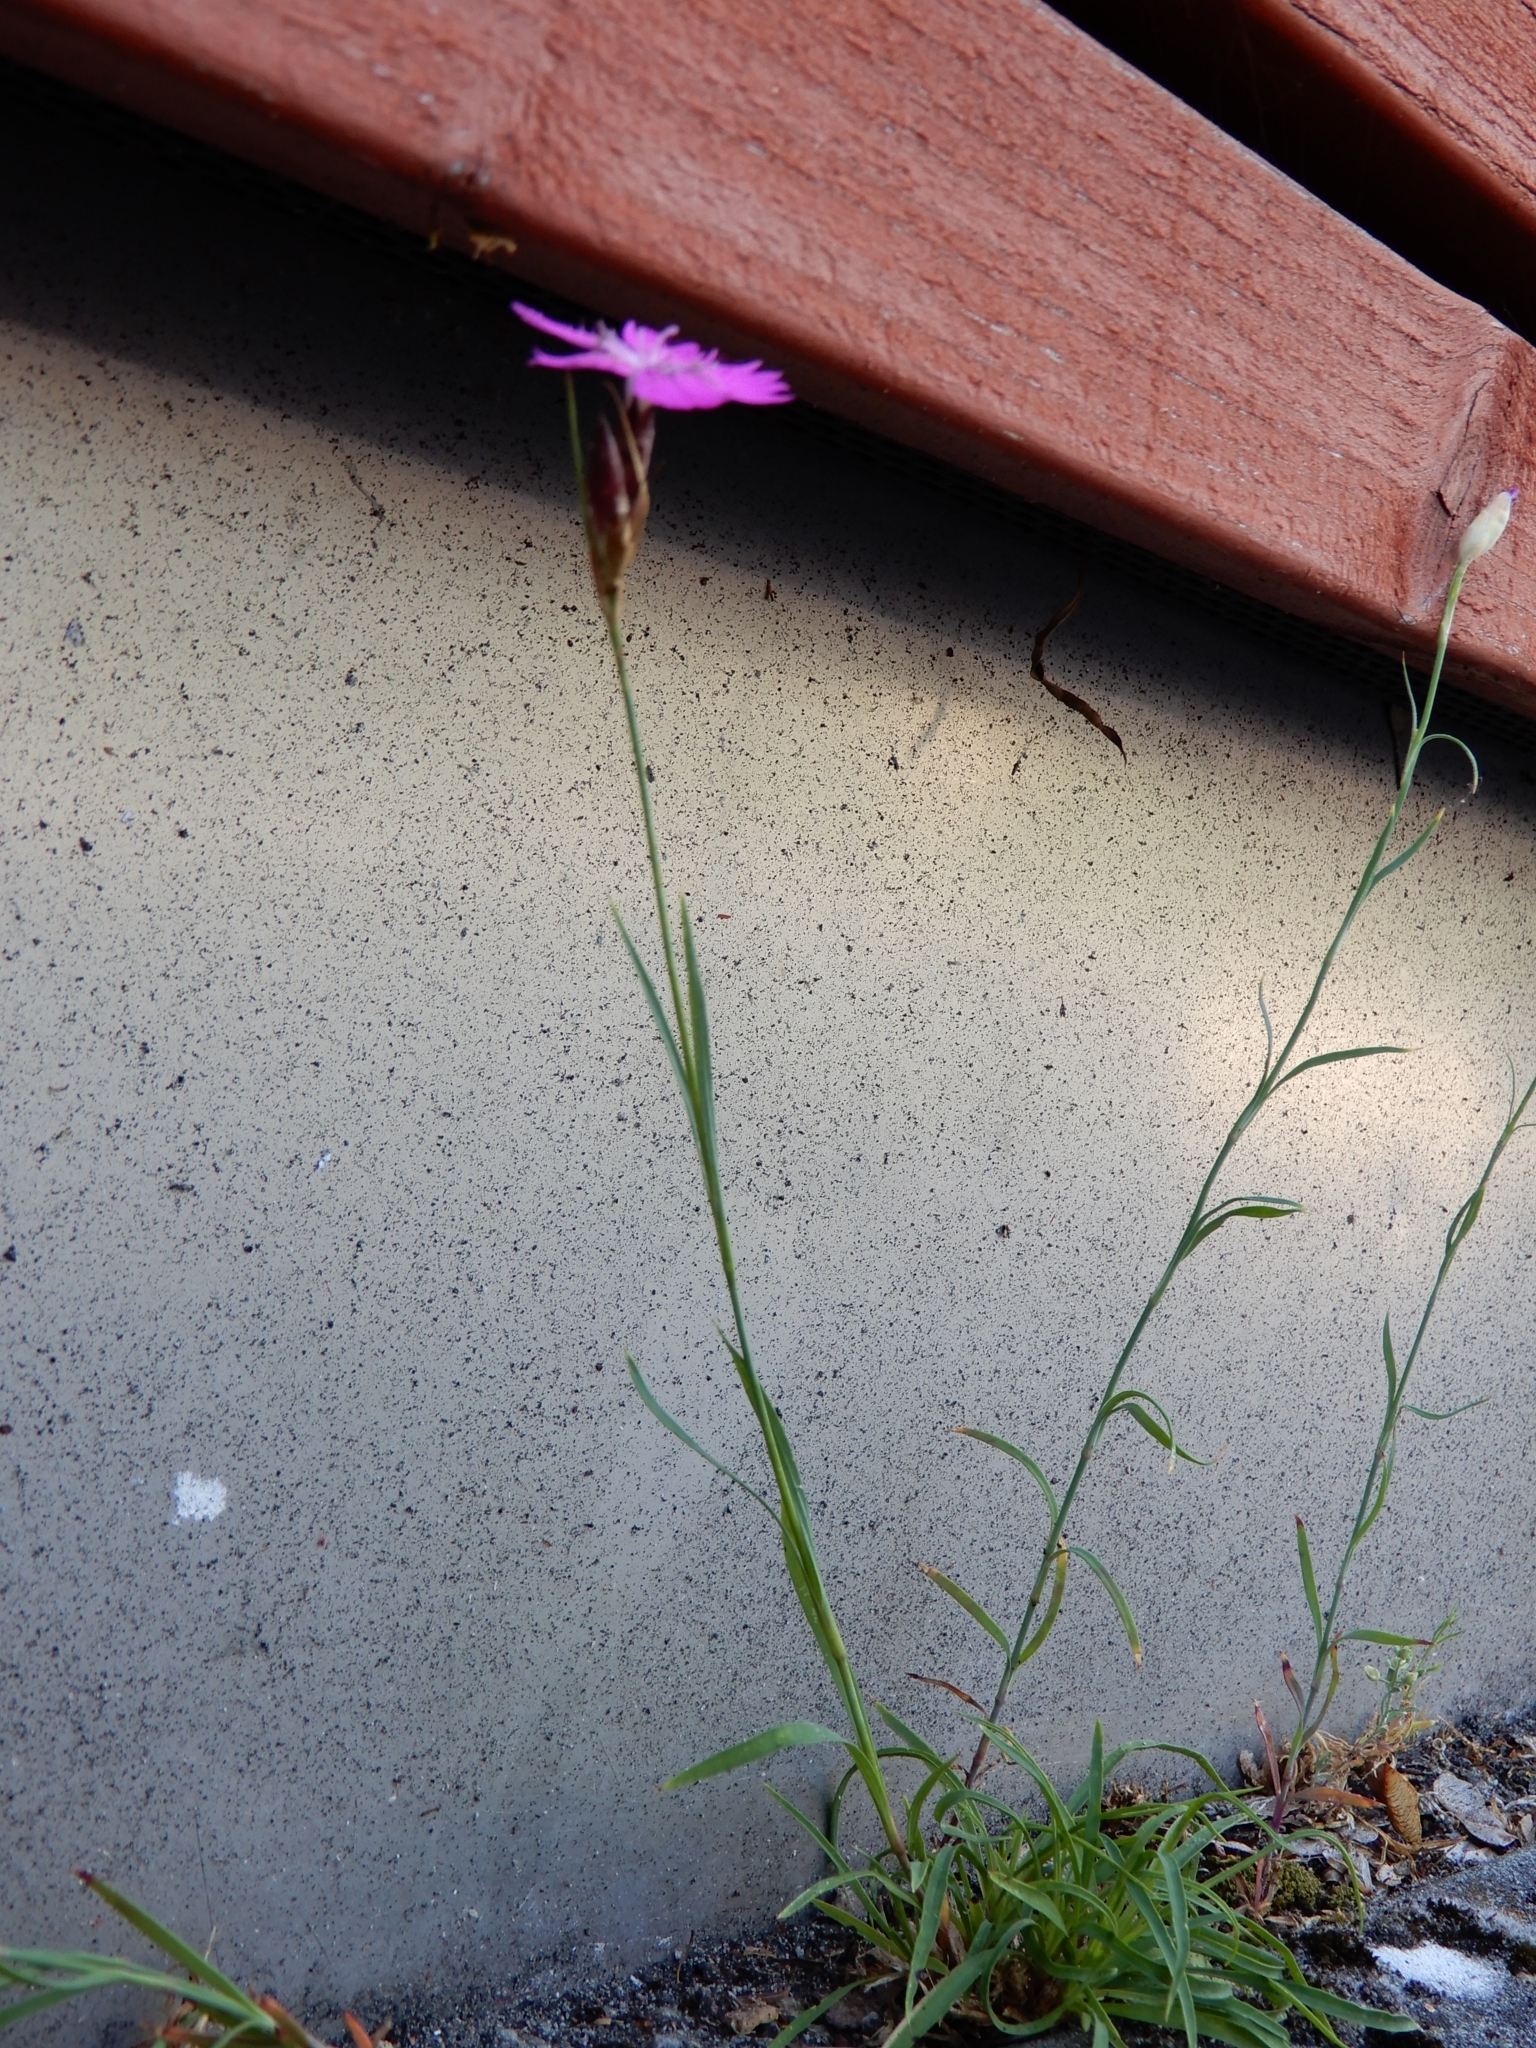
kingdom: Plantae
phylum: Tracheophyta
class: Magnoliopsida
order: Caryophyllales
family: Caryophyllaceae
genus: Dianthus
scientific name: Dianthus carthusianorum
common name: Carthusian pink
